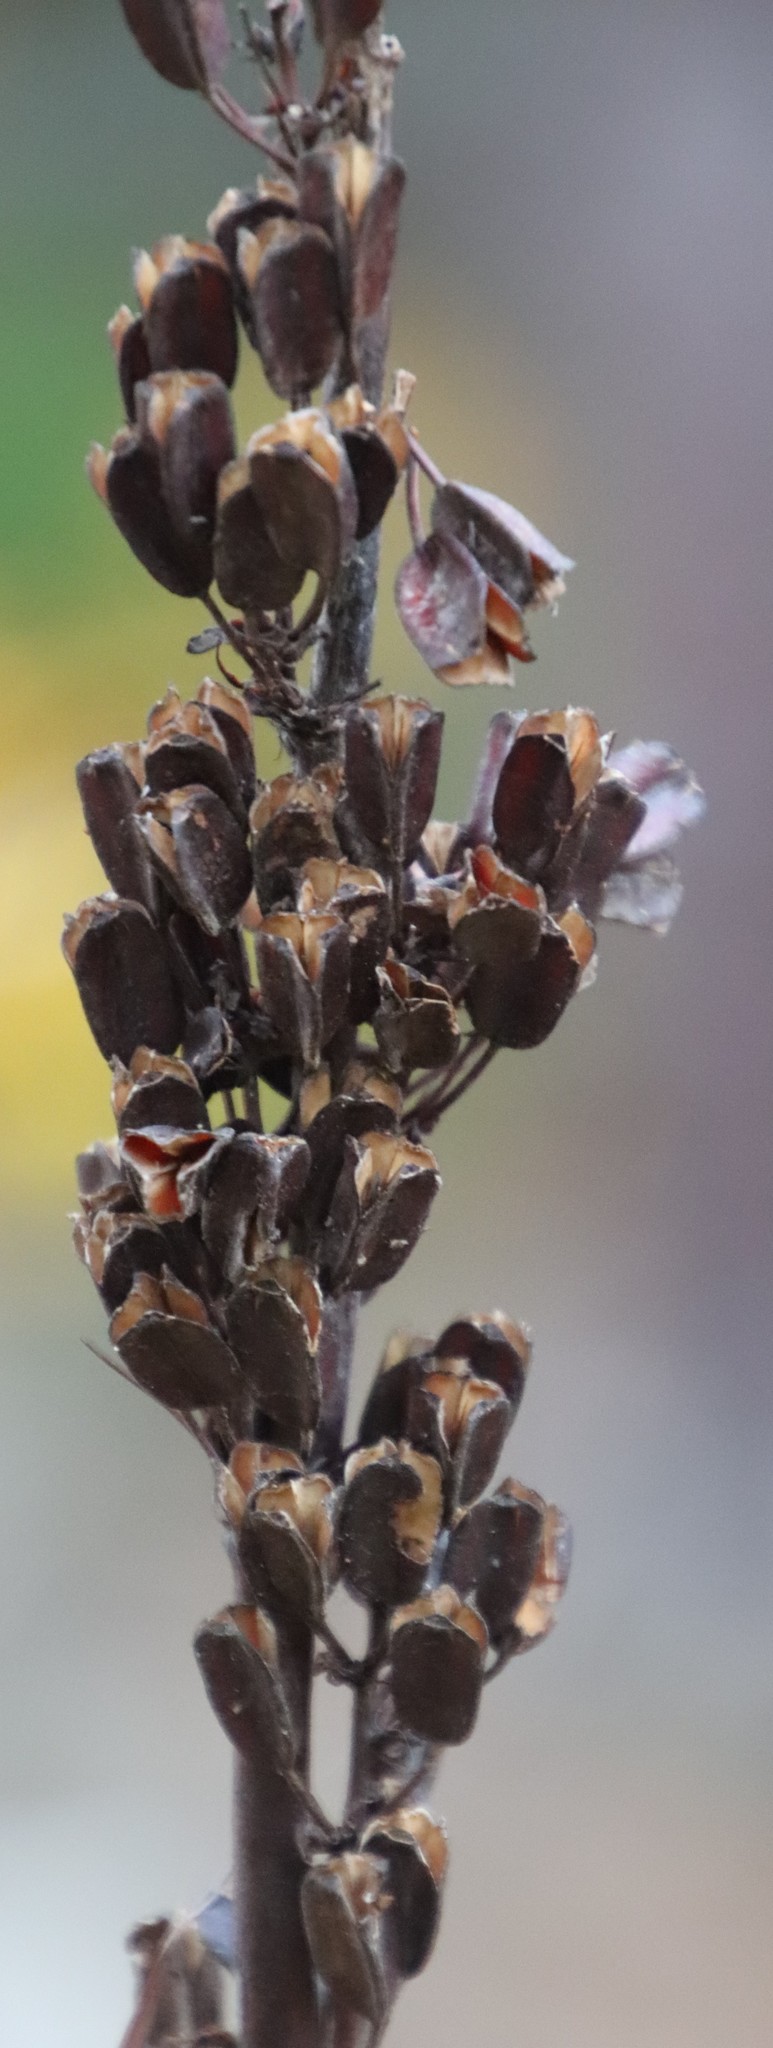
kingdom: Plantae
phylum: Tracheophyta
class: Liliopsida
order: Asparagales
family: Iridaceae
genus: Aristea
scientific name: Aristea bakeri
